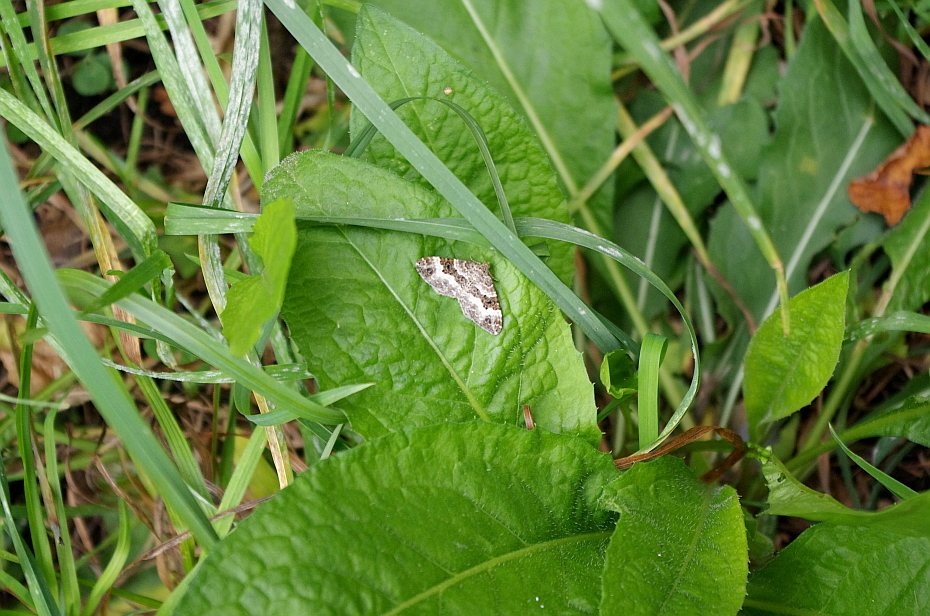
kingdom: Animalia
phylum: Arthropoda
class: Insecta
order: Lepidoptera
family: Geometridae
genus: Epirrhoe
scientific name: Epirrhoe alternata
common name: Common carpet
